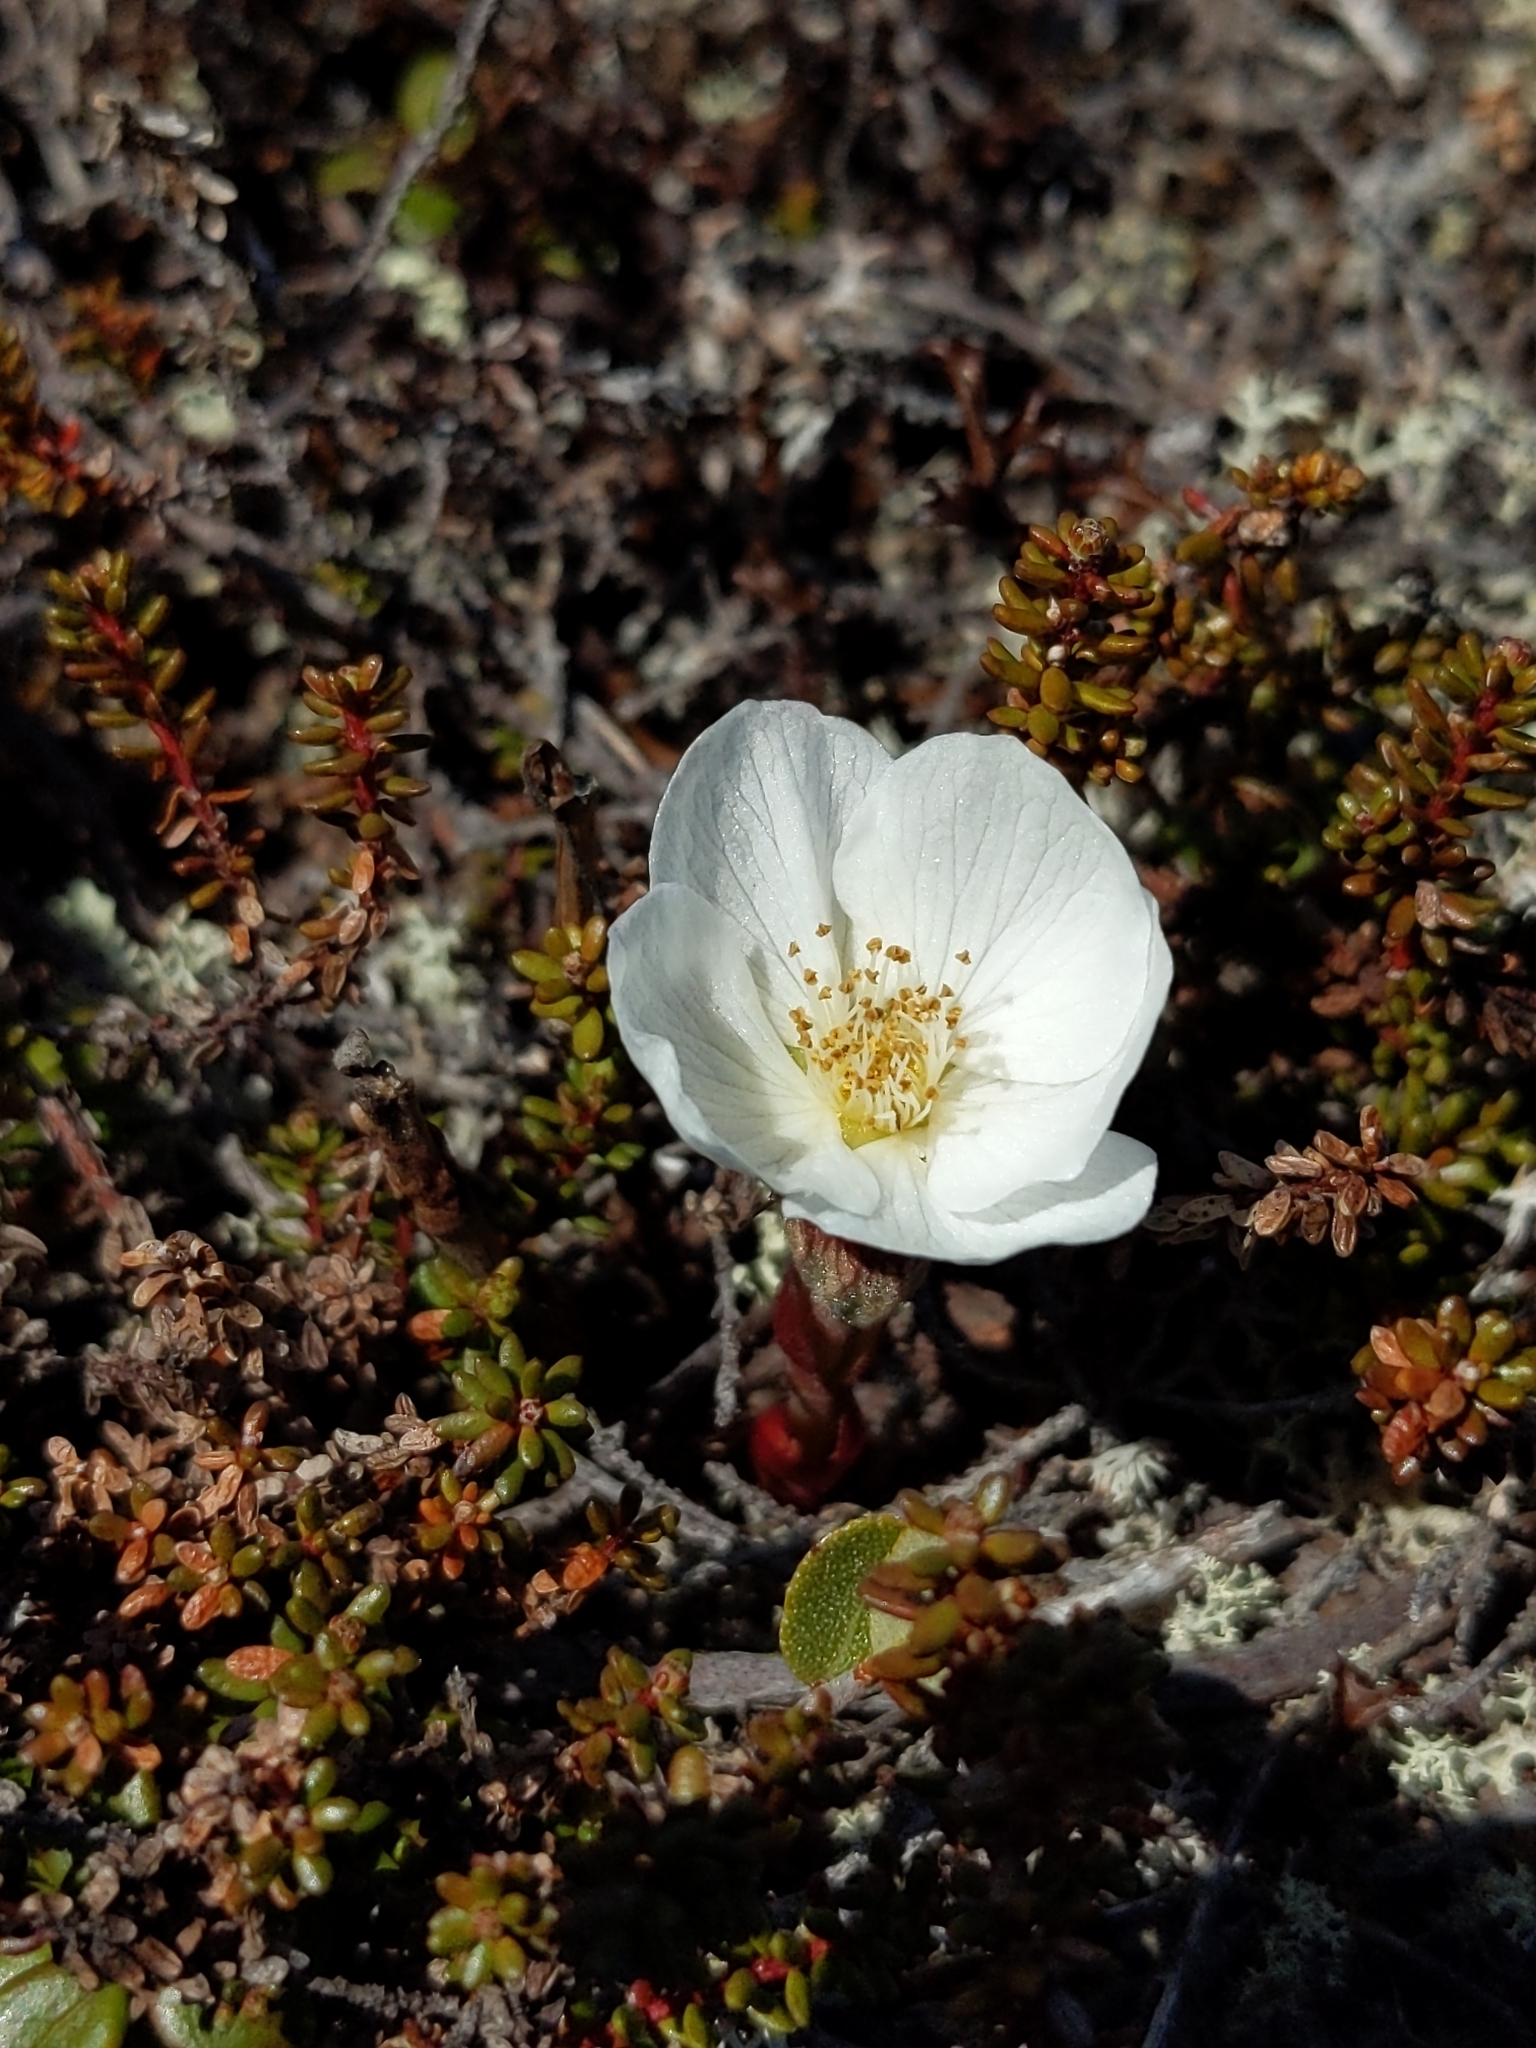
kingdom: Plantae
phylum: Tracheophyta
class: Magnoliopsida
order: Rosales
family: Rosaceae
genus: Rubus
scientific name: Rubus chamaemorus
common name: Cloudberry
